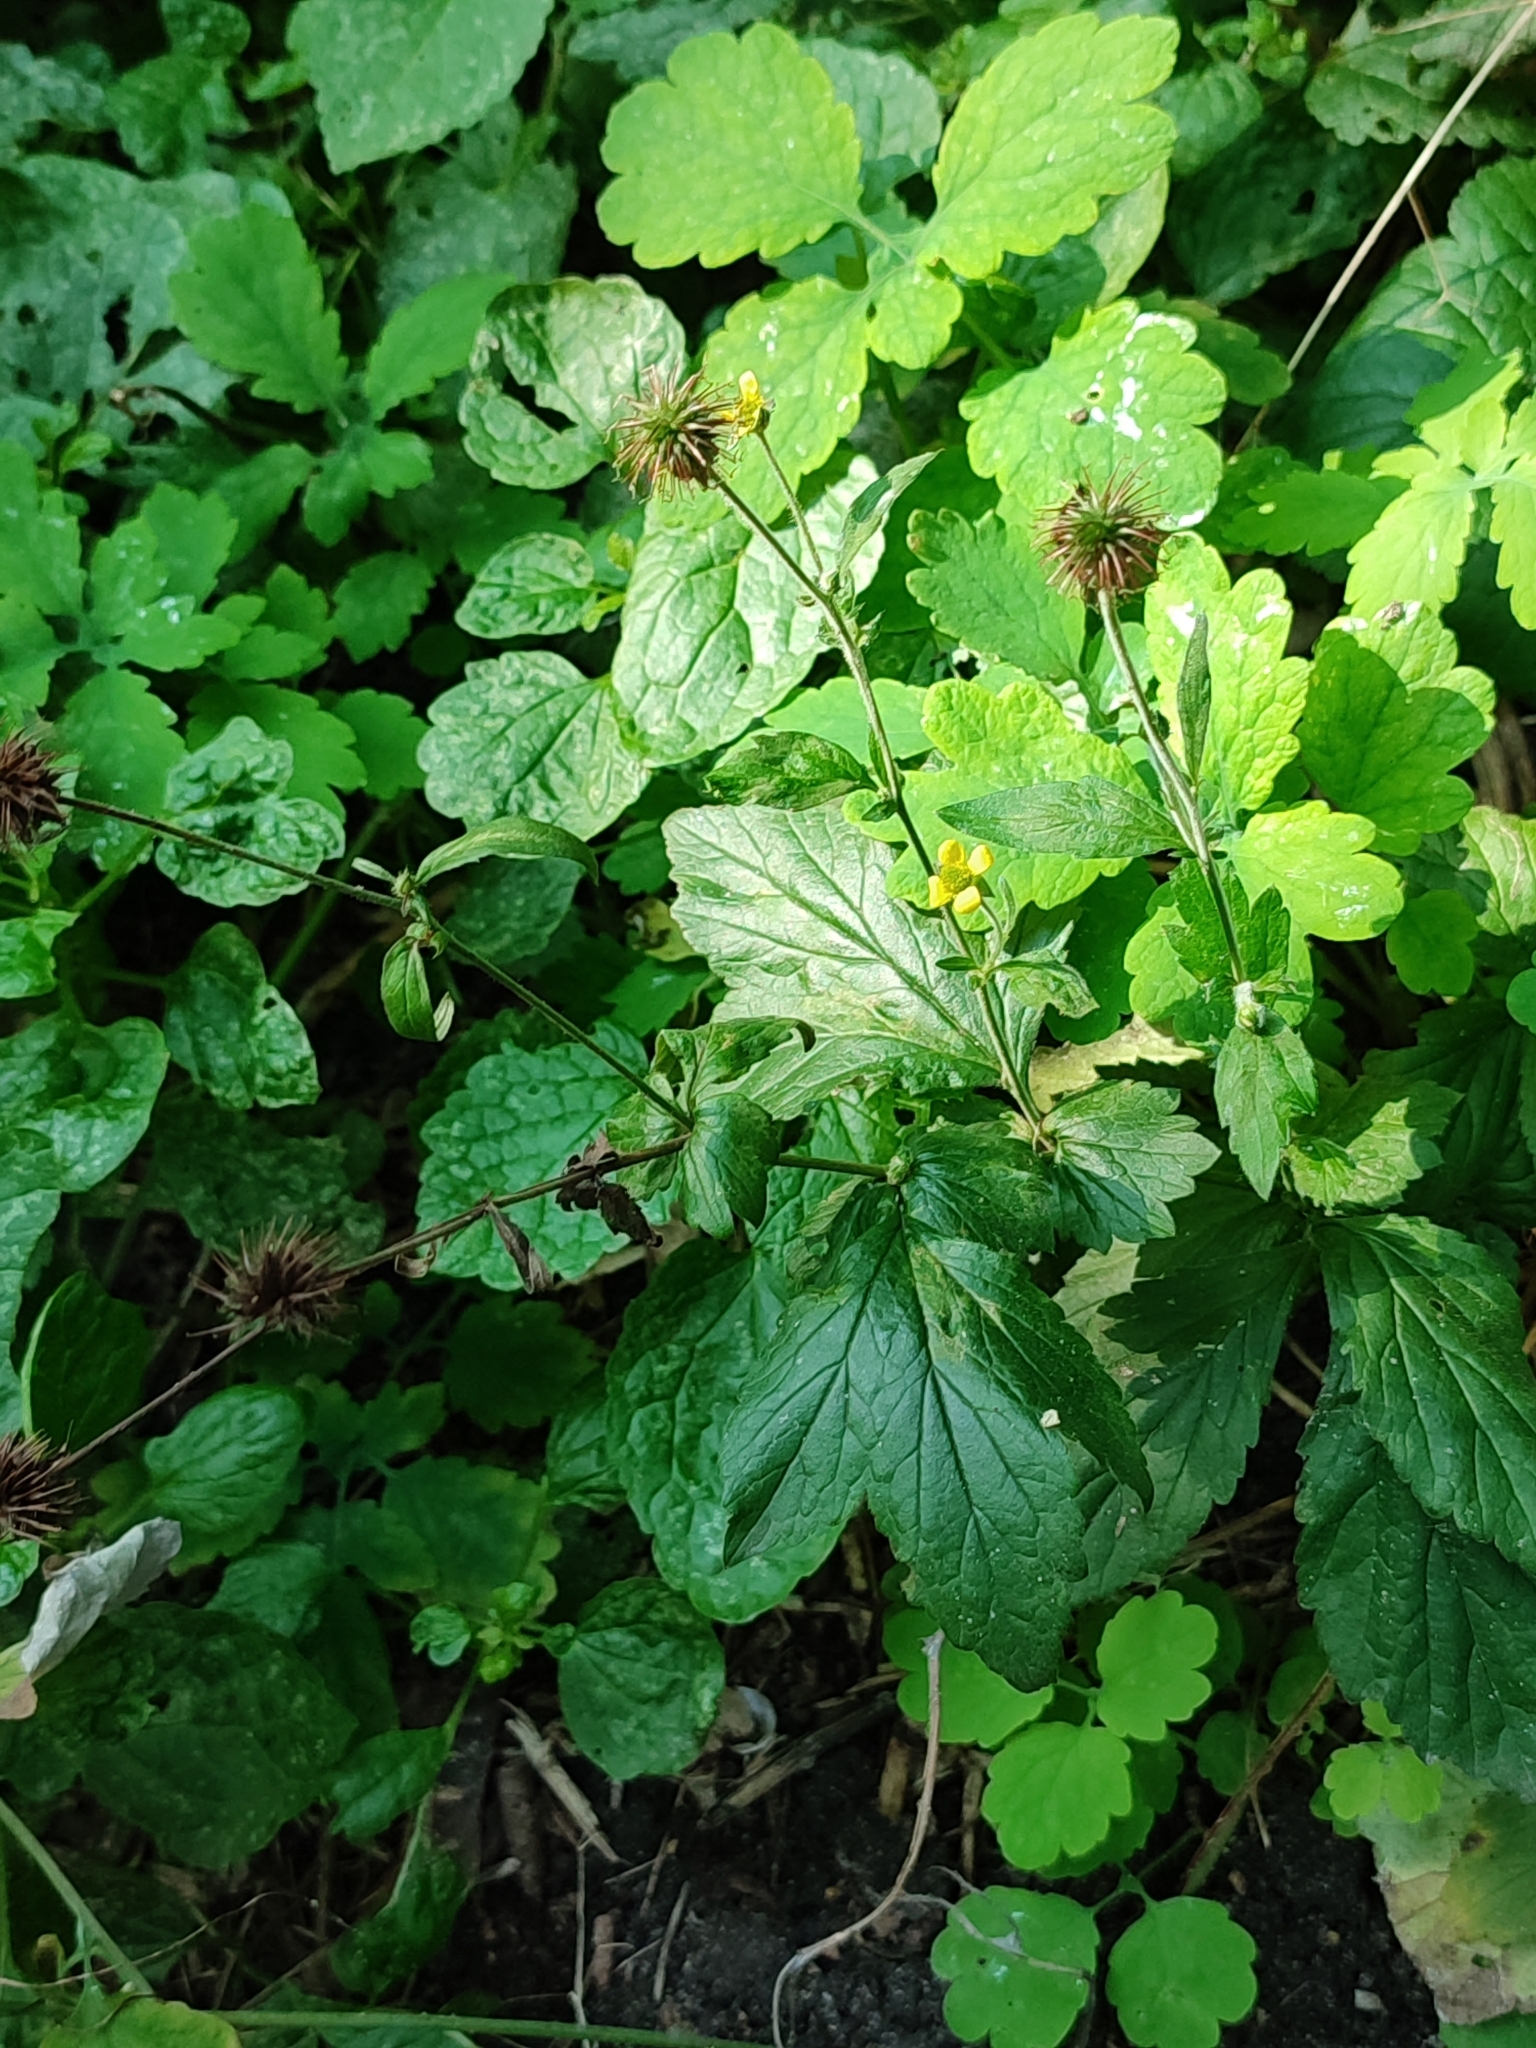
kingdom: Plantae
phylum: Tracheophyta
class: Magnoliopsida
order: Rosales
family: Rosaceae
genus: Geum
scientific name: Geum urbanum
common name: Wood avens
